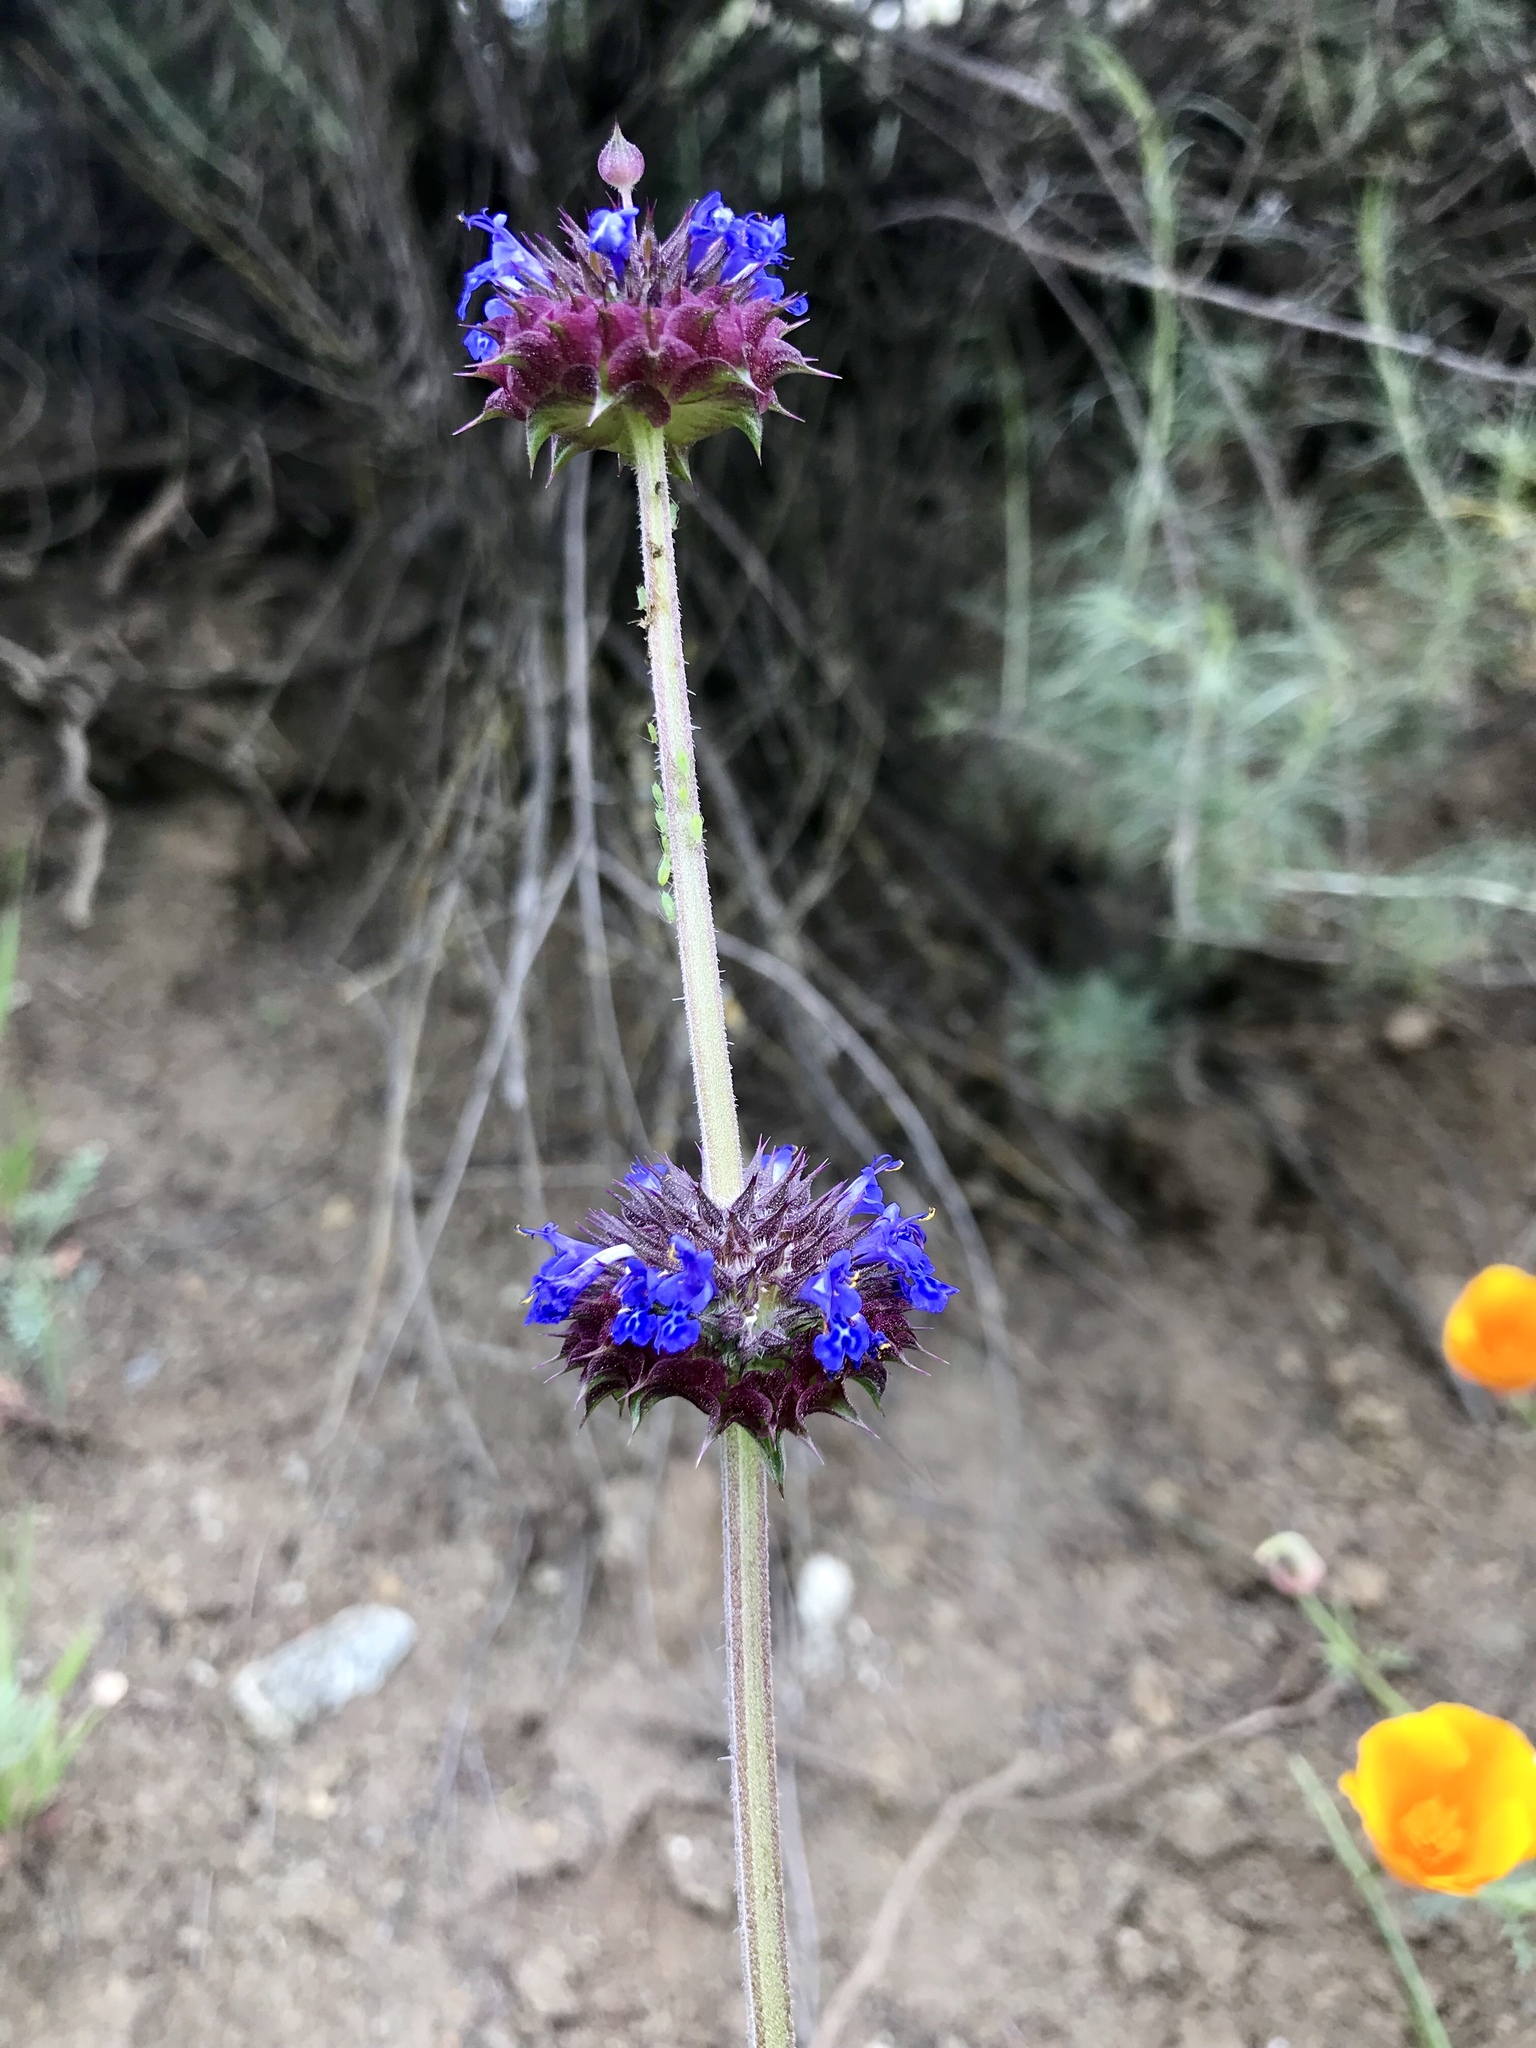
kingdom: Plantae
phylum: Tracheophyta
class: Magnoliopsida
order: Lamiales
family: Lamiaceae
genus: Salvia
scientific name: Salvia columbariae
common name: Chia
